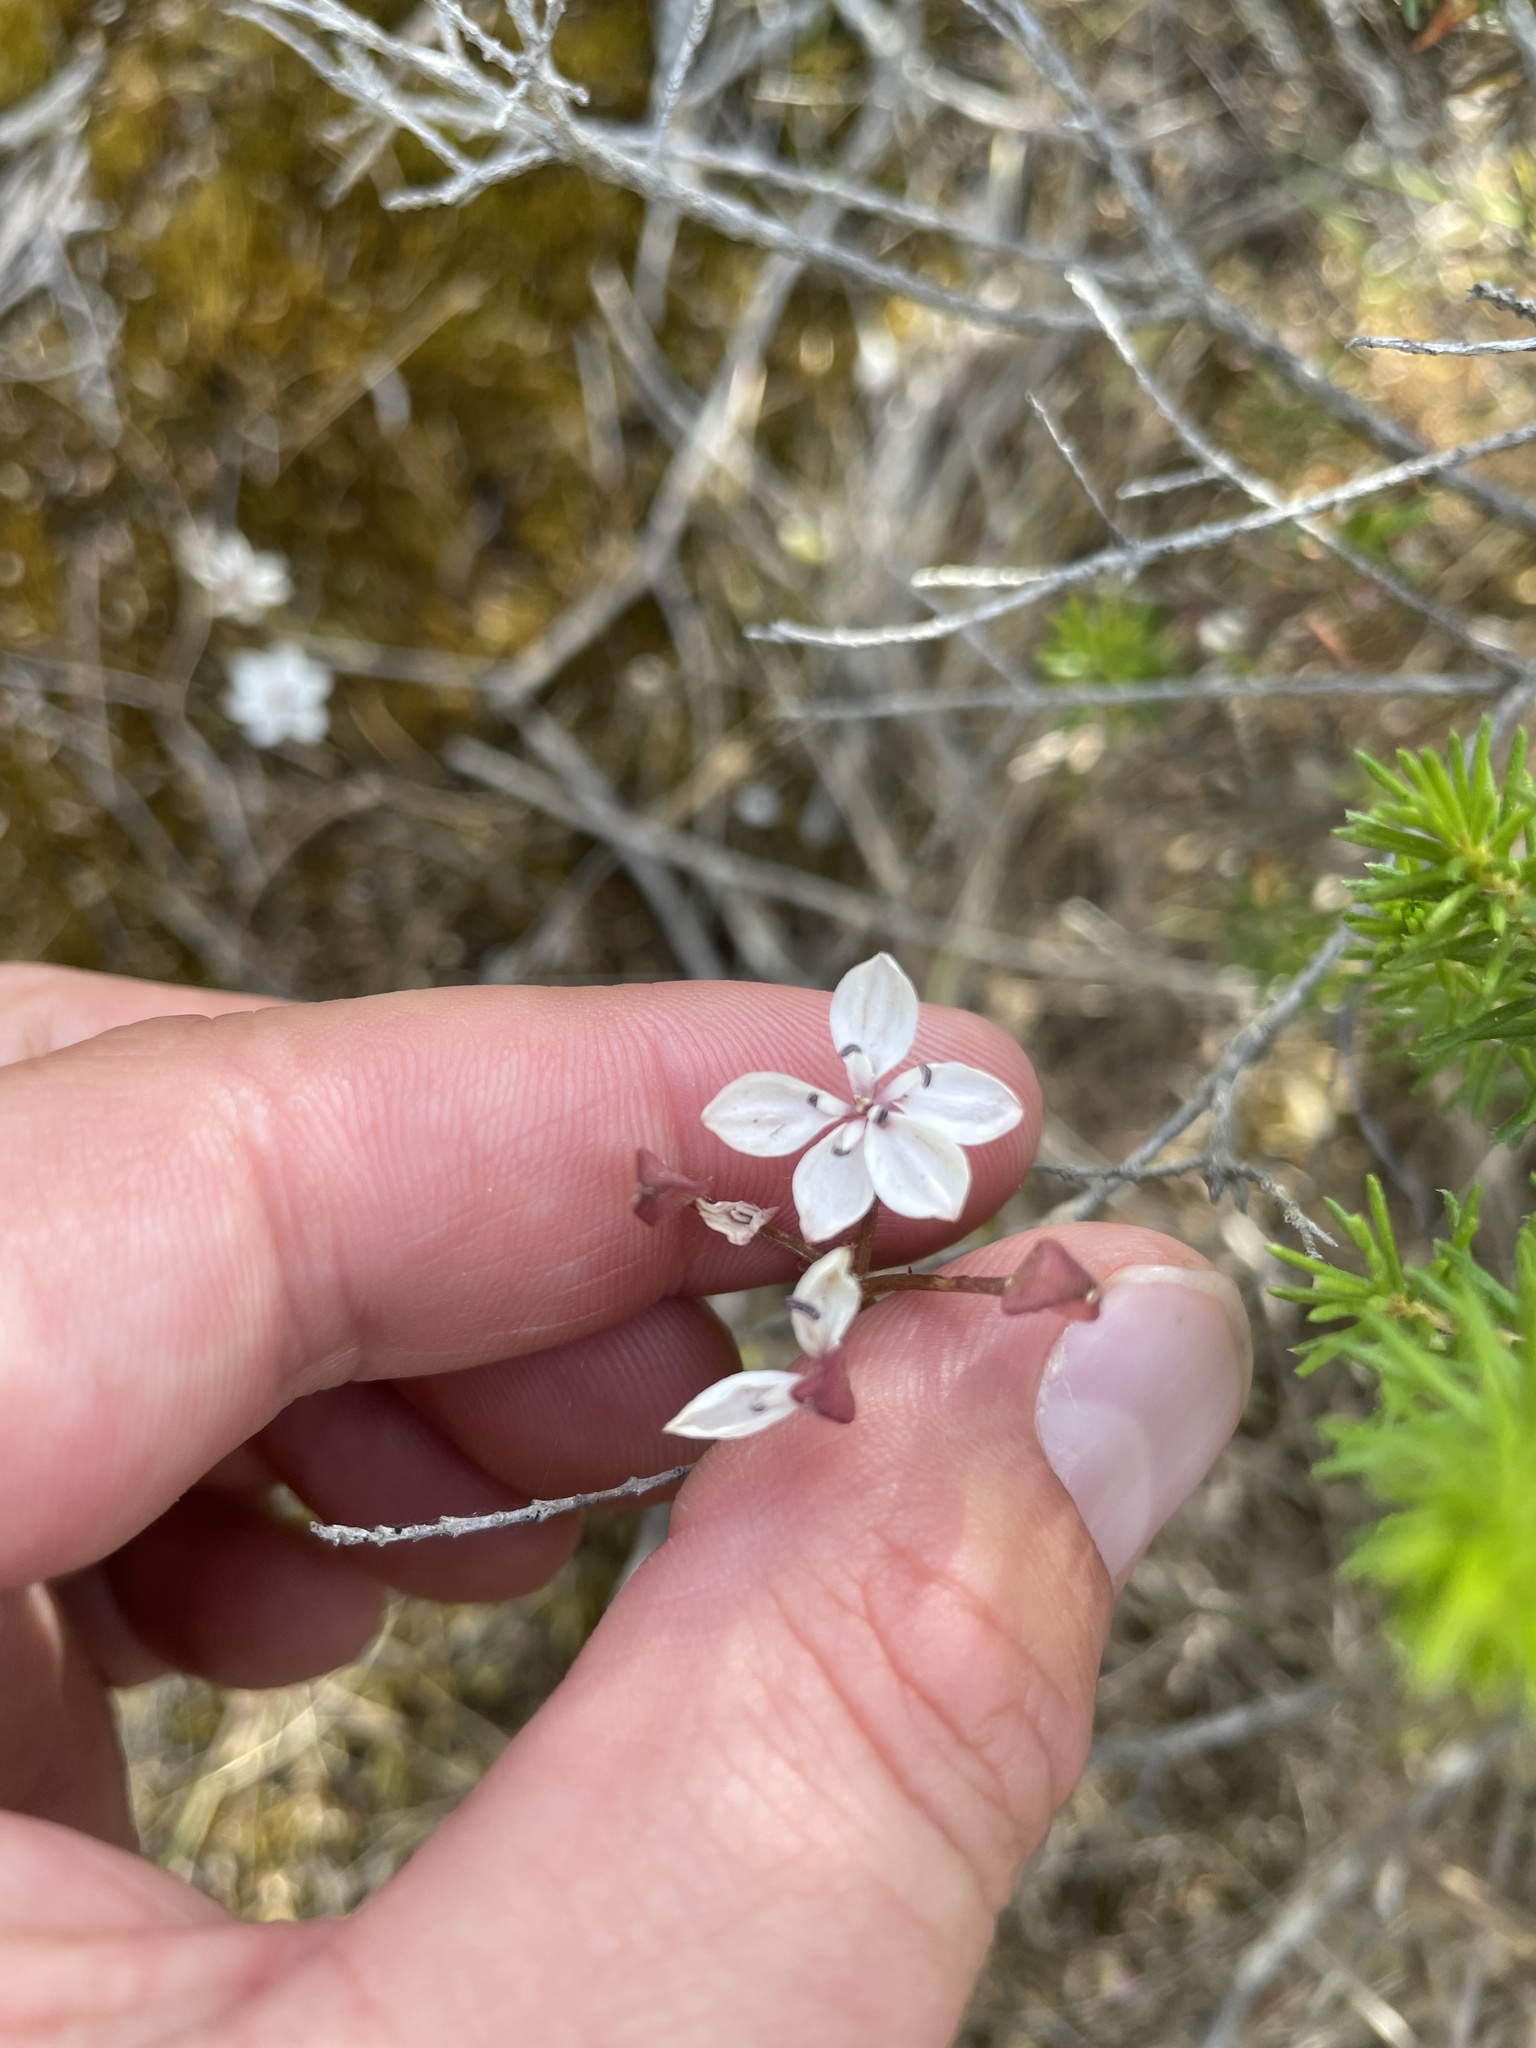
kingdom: Plantae
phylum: Tracheophyta
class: Liliopsida
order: Liliales
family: Colchicaceae
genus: Burchardia
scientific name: Burchardia umbellata
